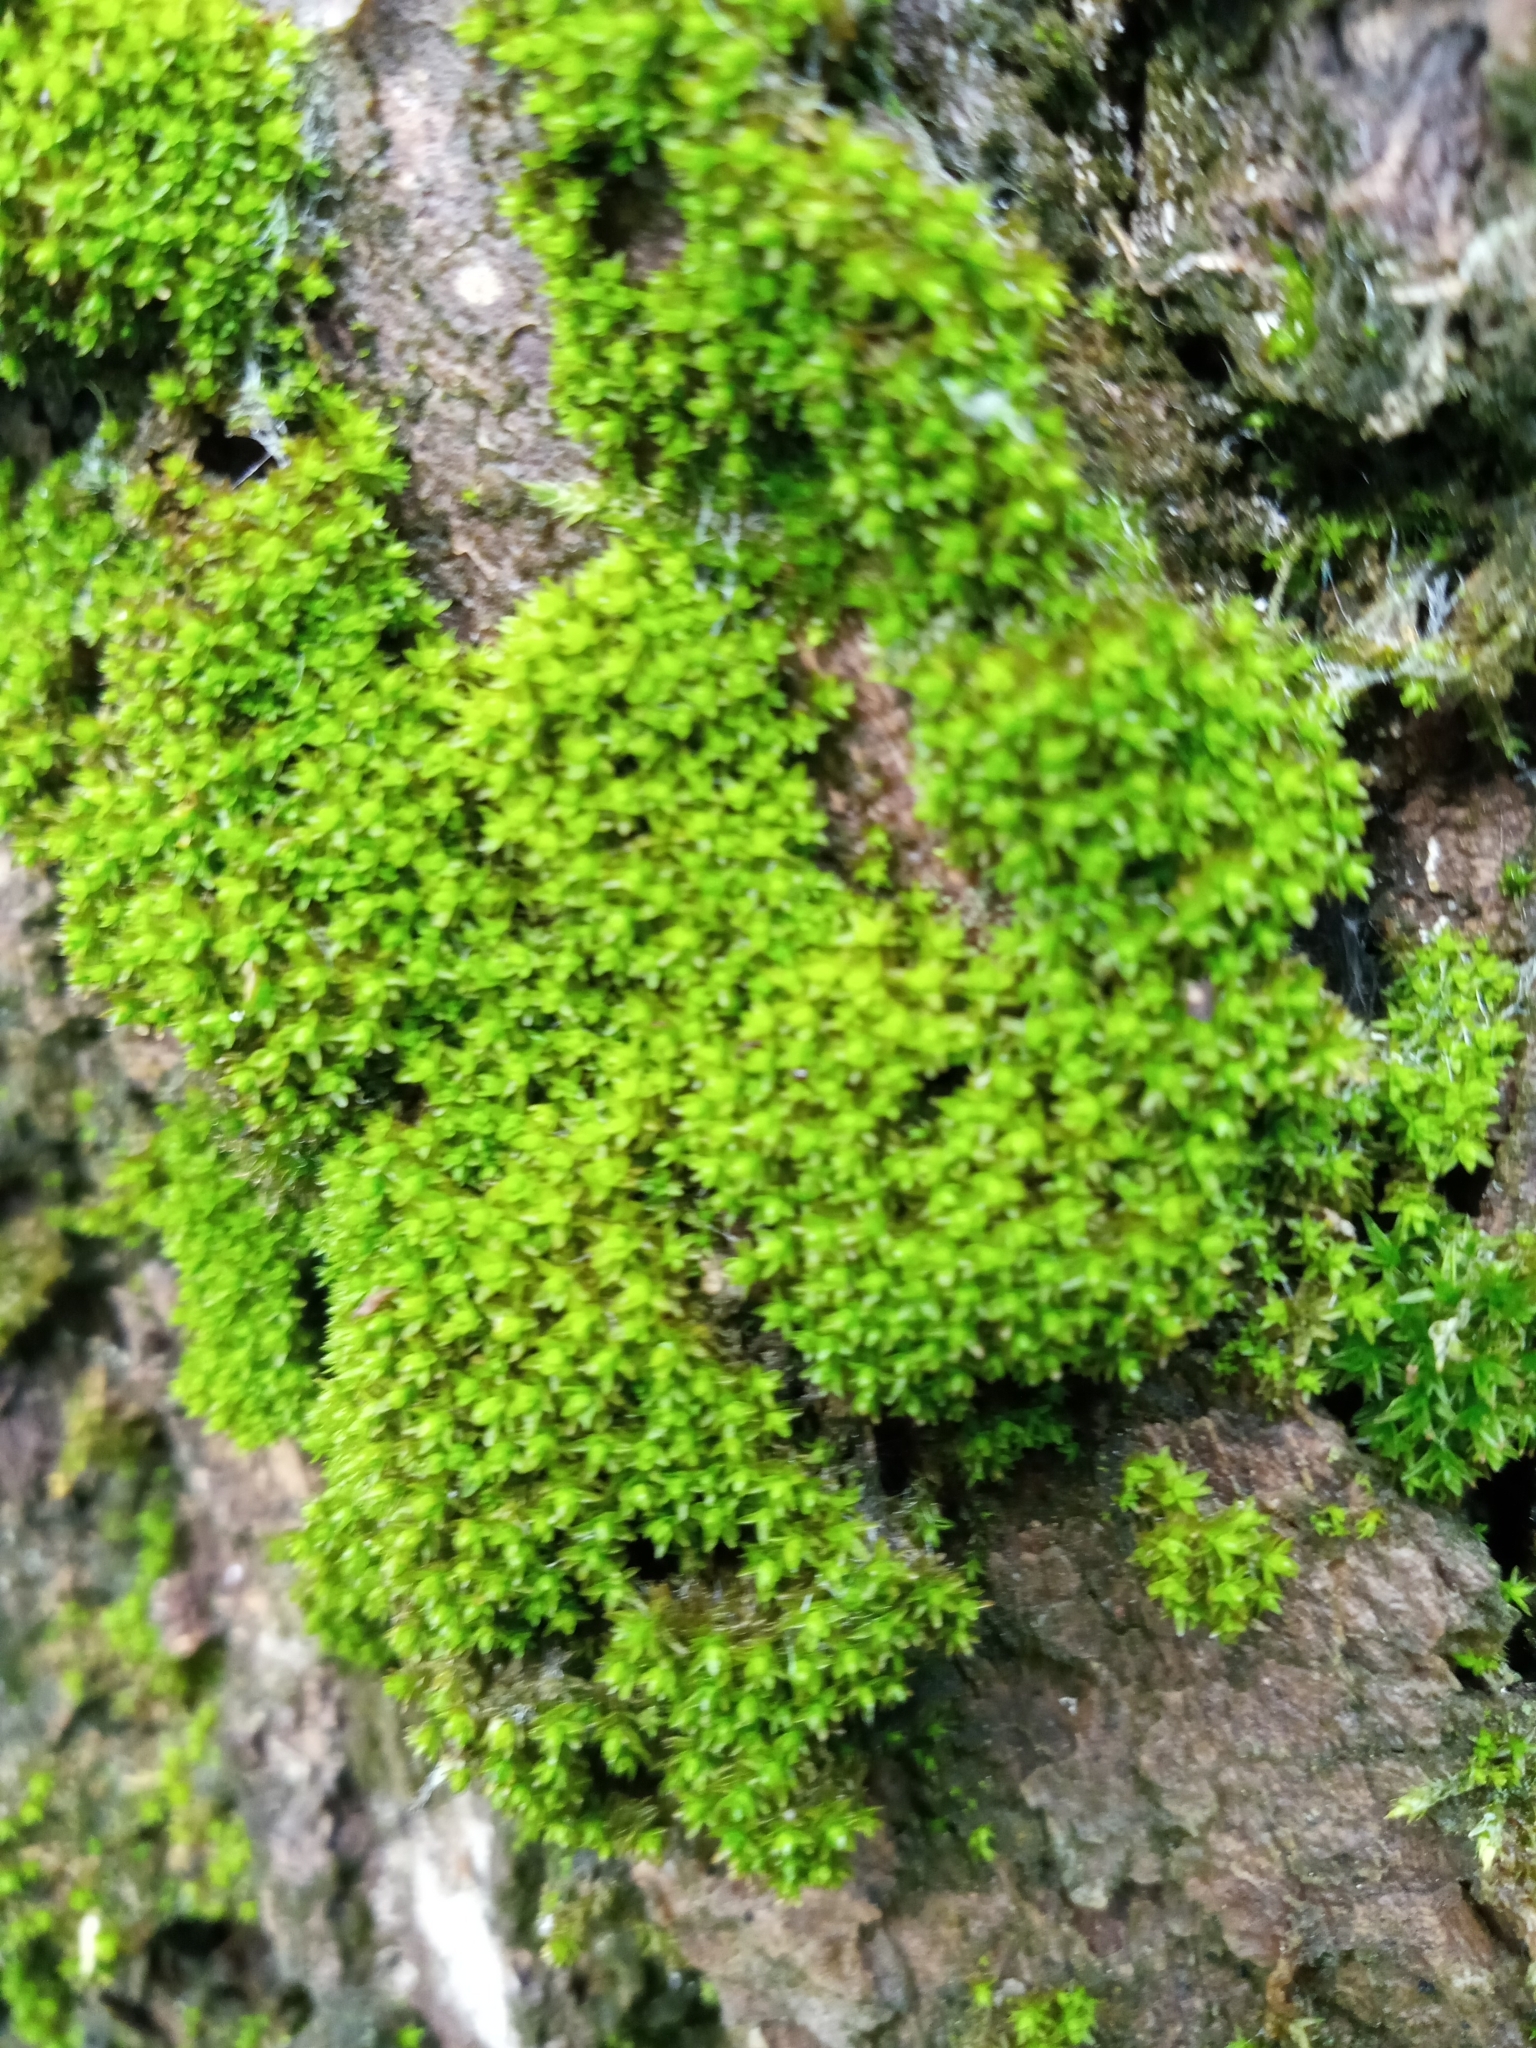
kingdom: Plantae
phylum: Bryophyta
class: Bryopsida
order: Orthotrichales
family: Orthotrichaceae
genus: Nyholmiella
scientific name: Nyholmiella obtusifolia
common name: Blunt-leaved bristle-moss
